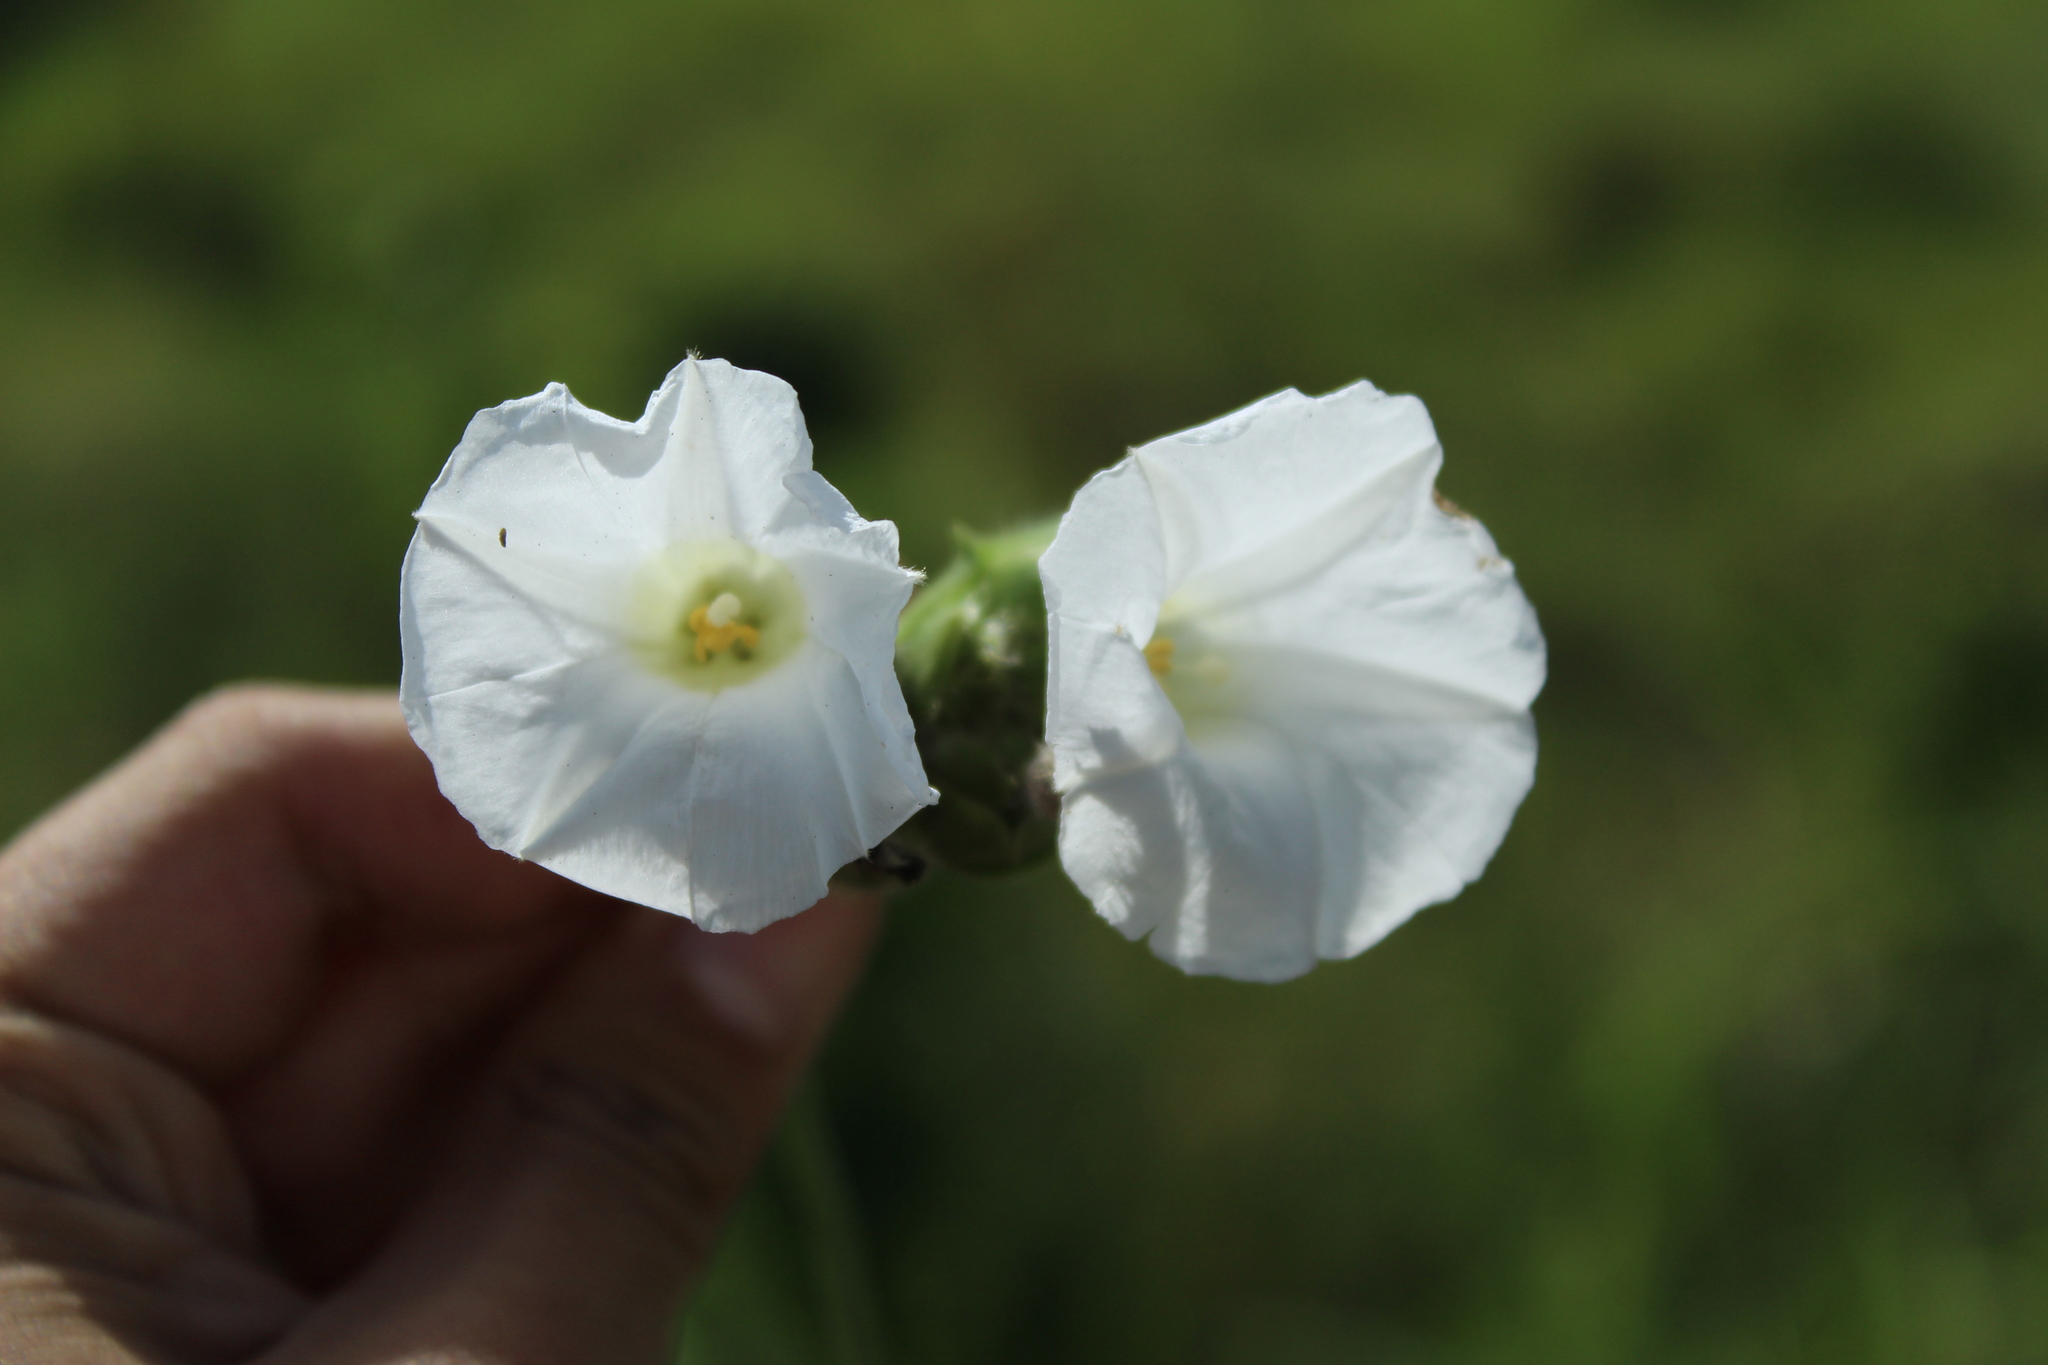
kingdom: Plantae
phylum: Tracheophyta
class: Magnoliopsida
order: Solanales
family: Convolvulaceae
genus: Odonellia
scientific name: Odonellia hirtiflora
